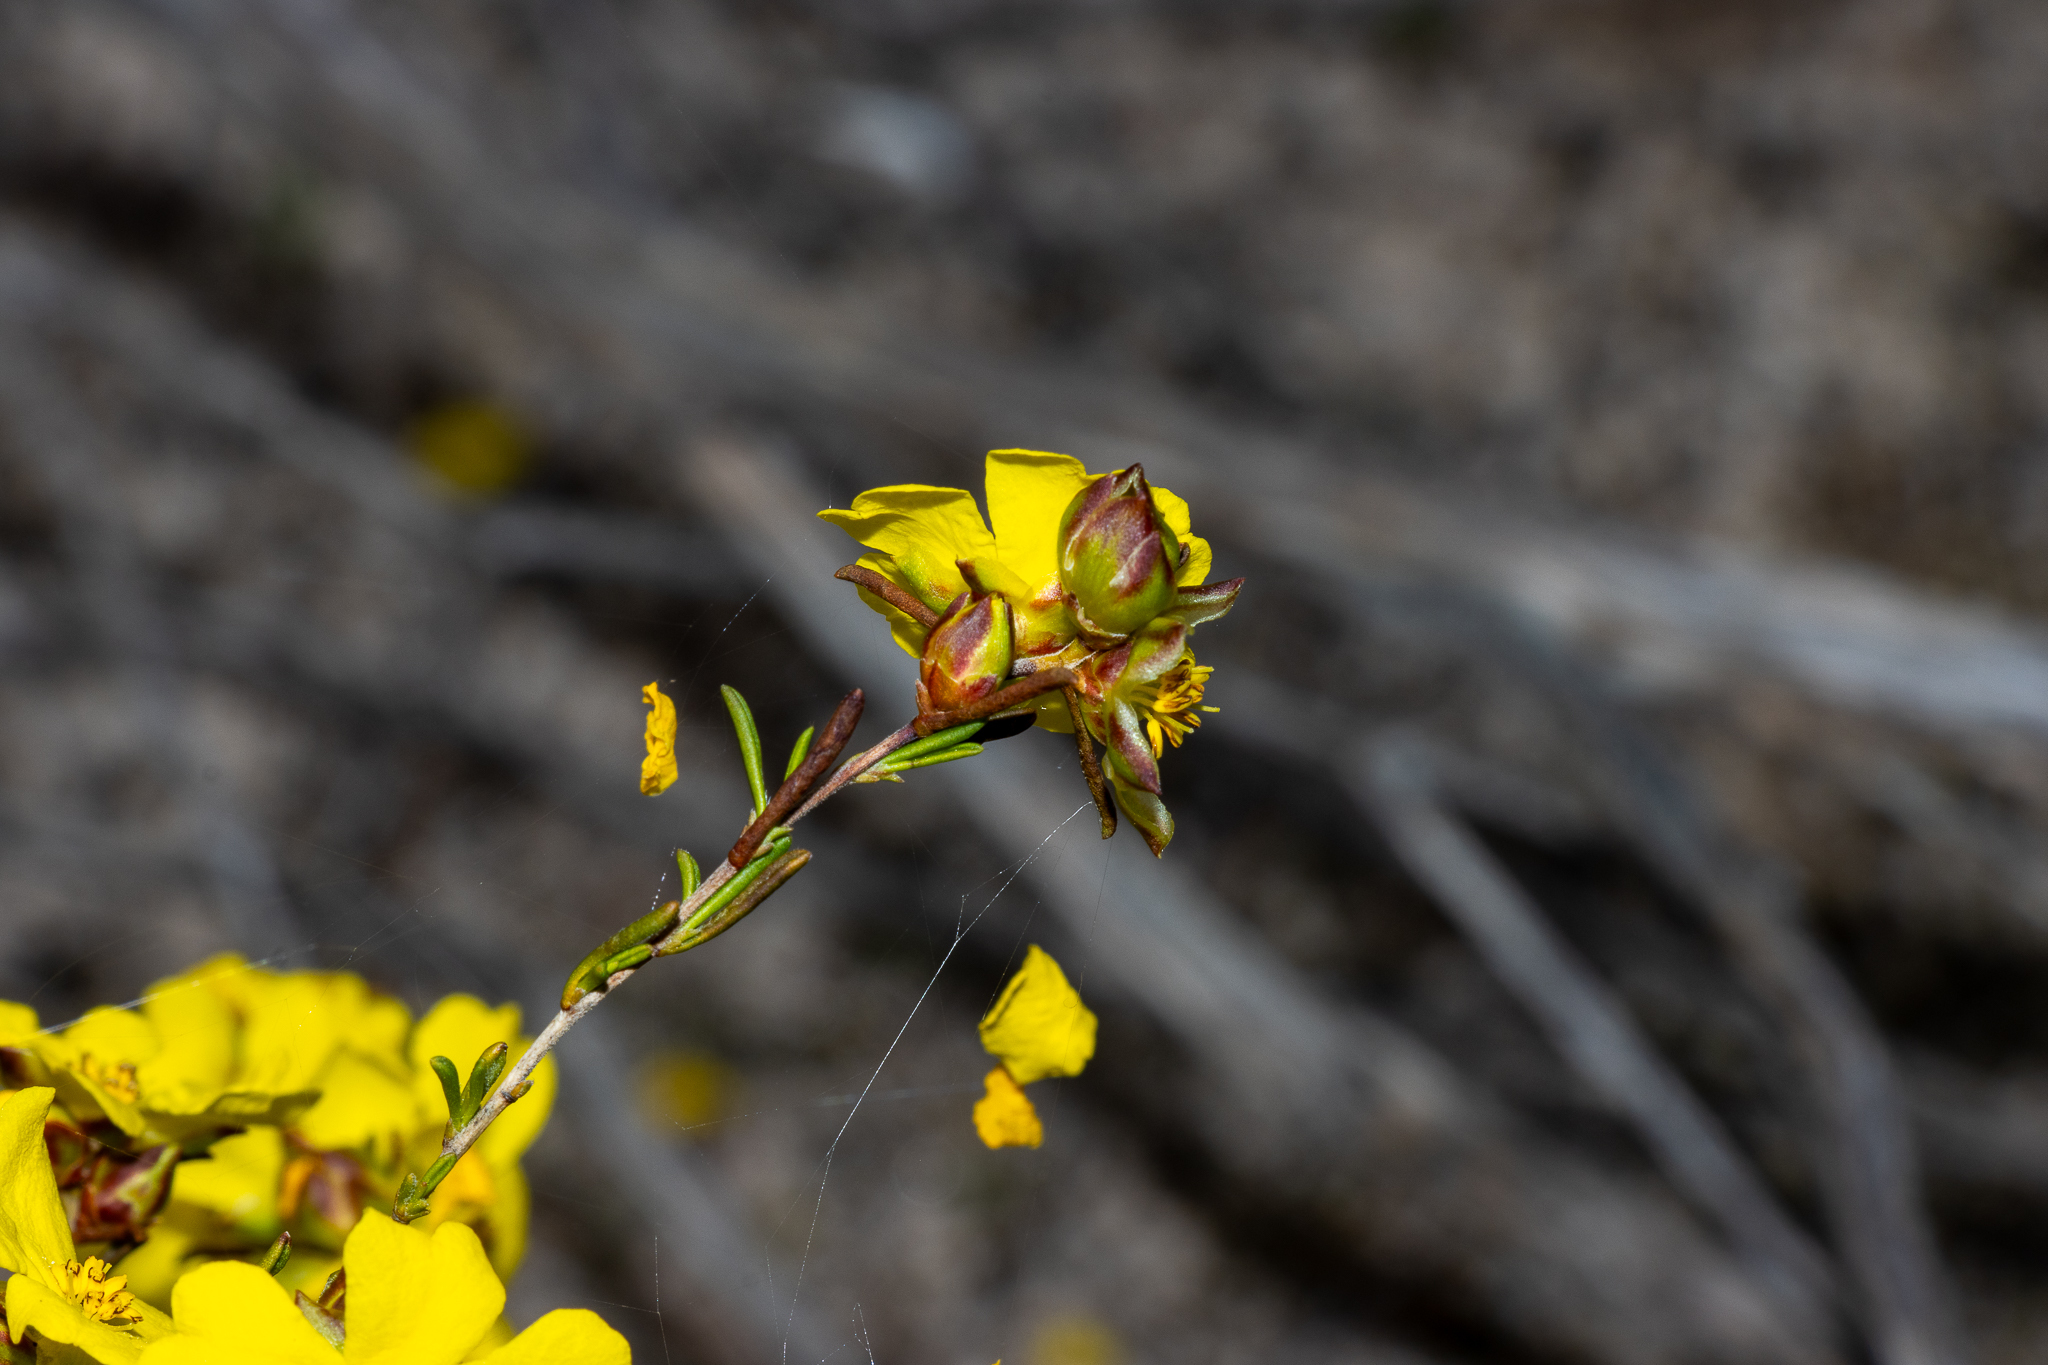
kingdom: Plantae
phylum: Tracheophyta
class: Magnoliopsida
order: Dilleniales
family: Dilleniaceae
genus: Hibbertia
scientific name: Hibbertia virgata
